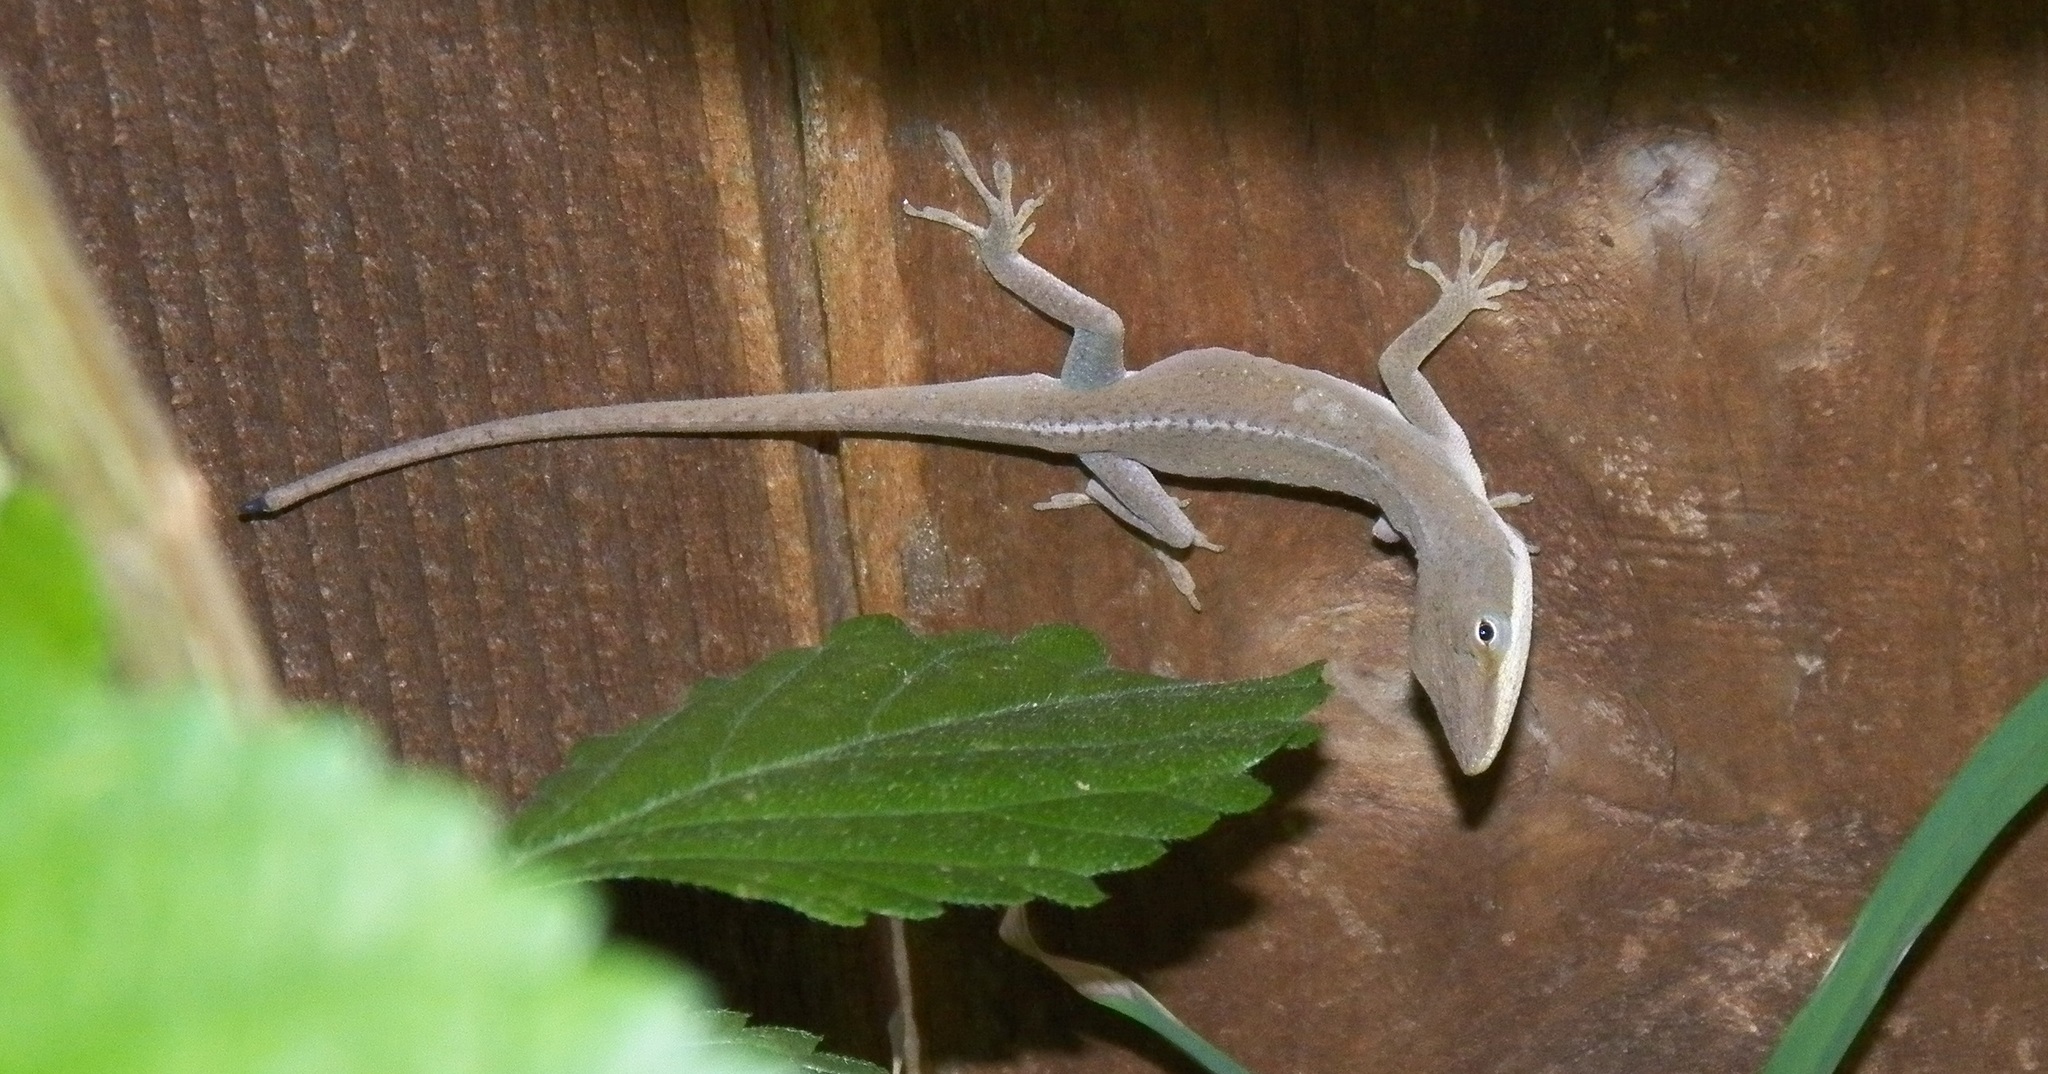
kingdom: Animalia
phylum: Chordata
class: Squamata
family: Dactyloidae
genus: Anolis
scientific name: Anolis carolinensis
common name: Green anole
